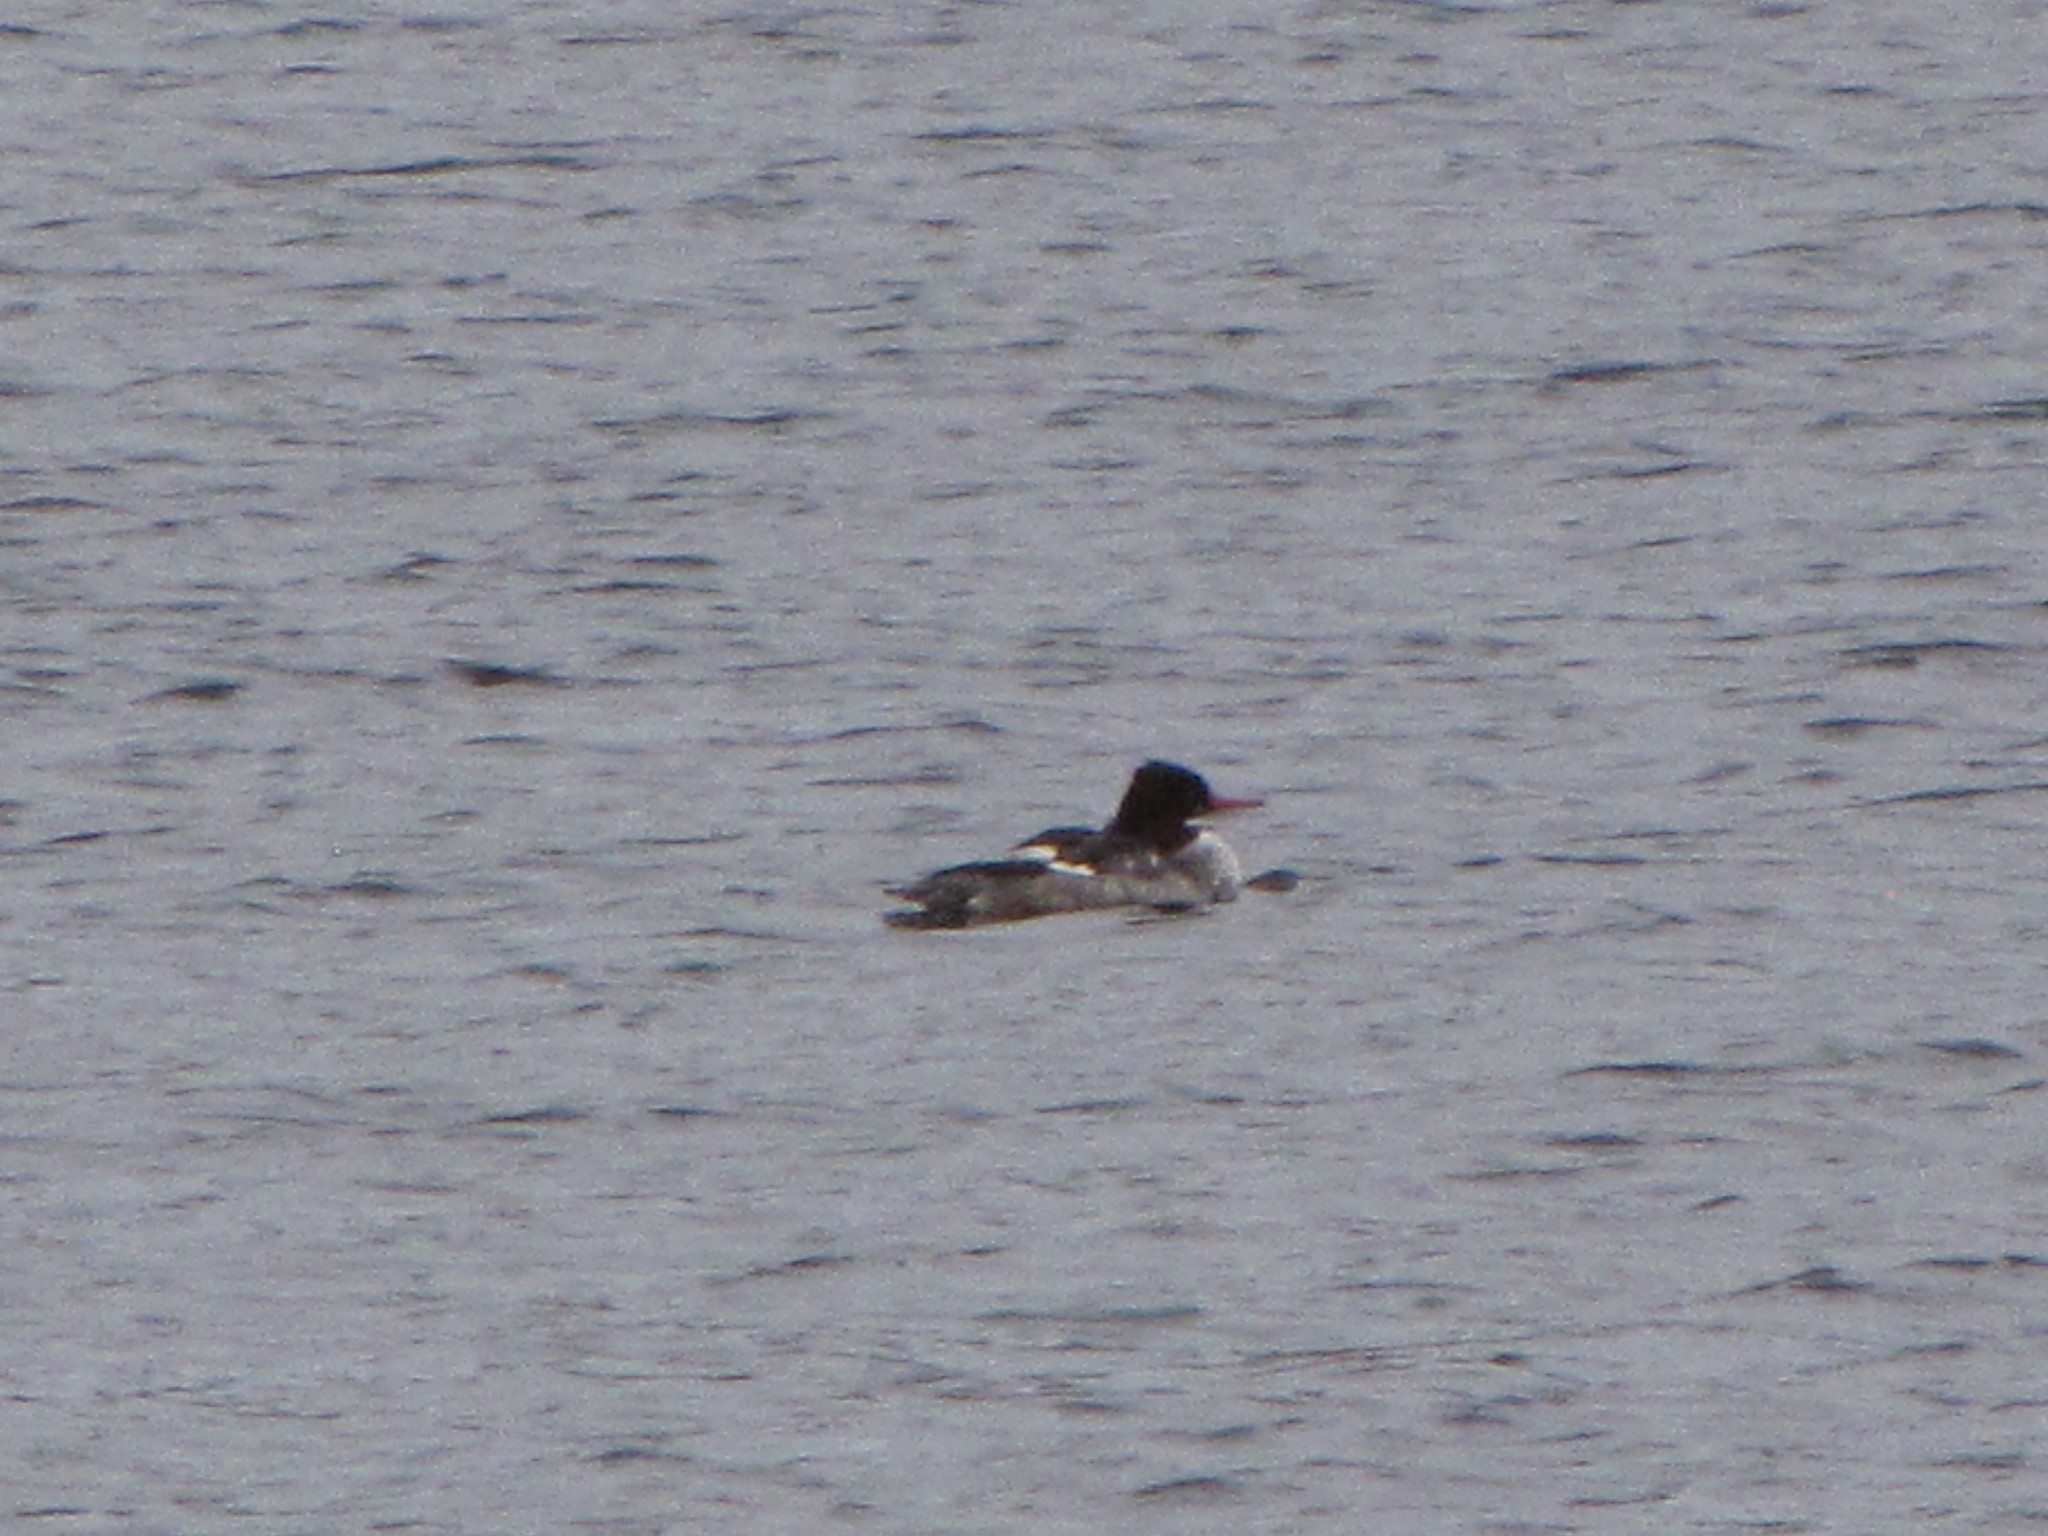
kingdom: Animalia
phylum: Chordata
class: Aves
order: Anseriformes
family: Anatidae
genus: Mergus
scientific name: Mergus merganser
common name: Common merganser
